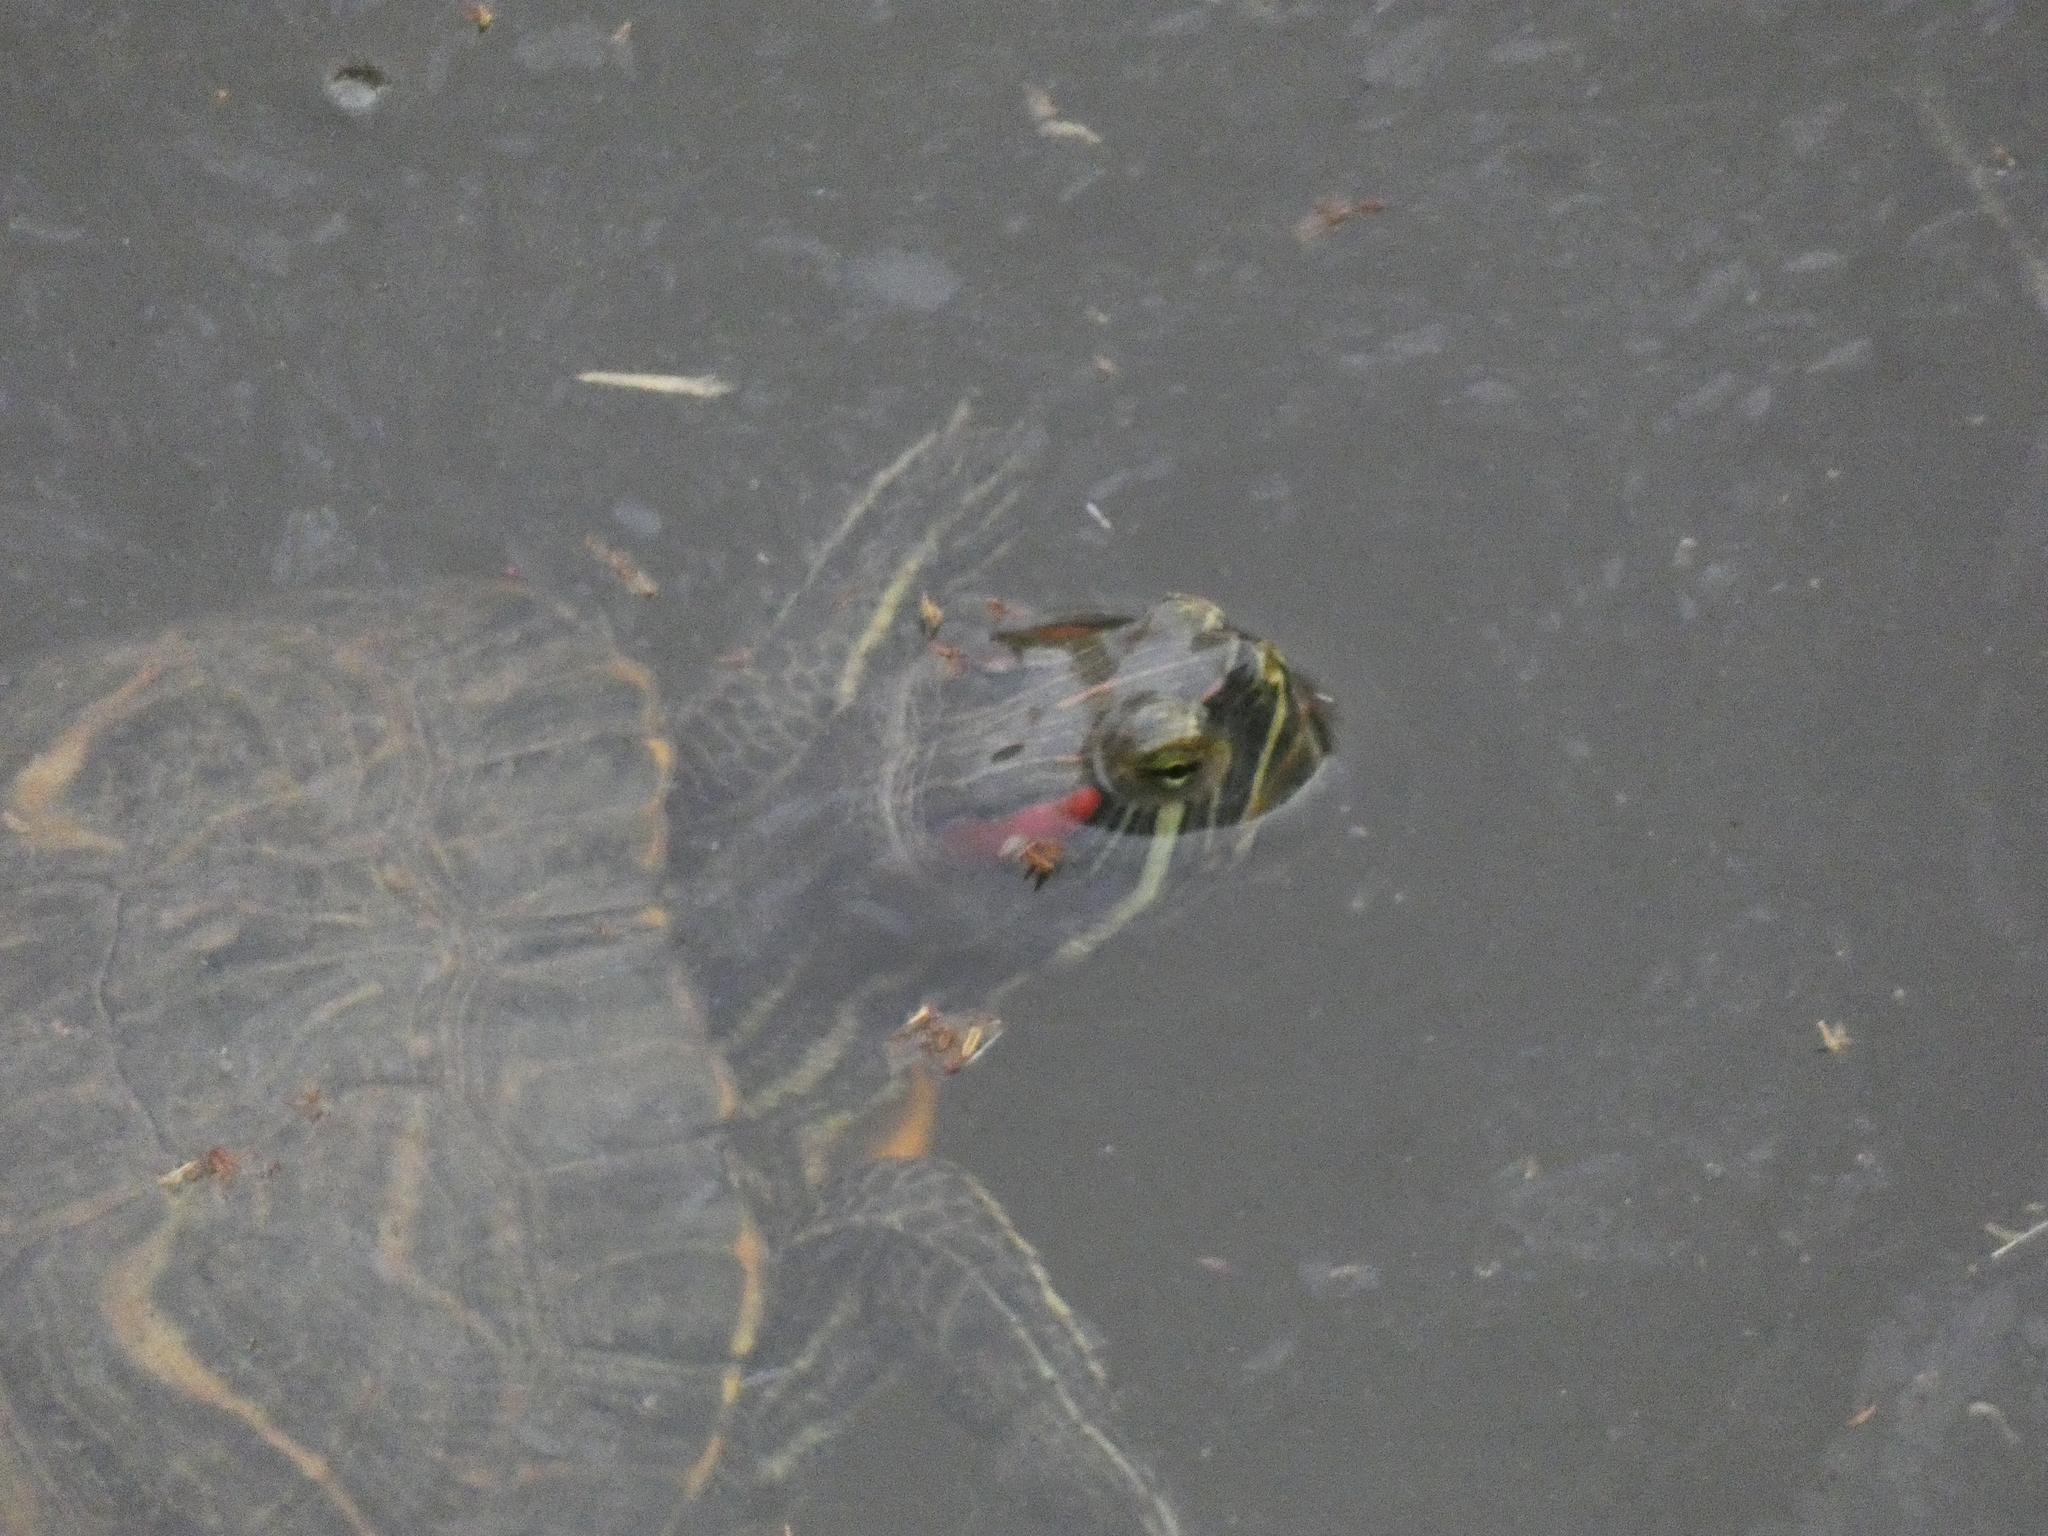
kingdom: Animalia
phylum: Chordata
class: Testudines
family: Emydidae
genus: Trachemys
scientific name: Trachemys scripta
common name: Slider
